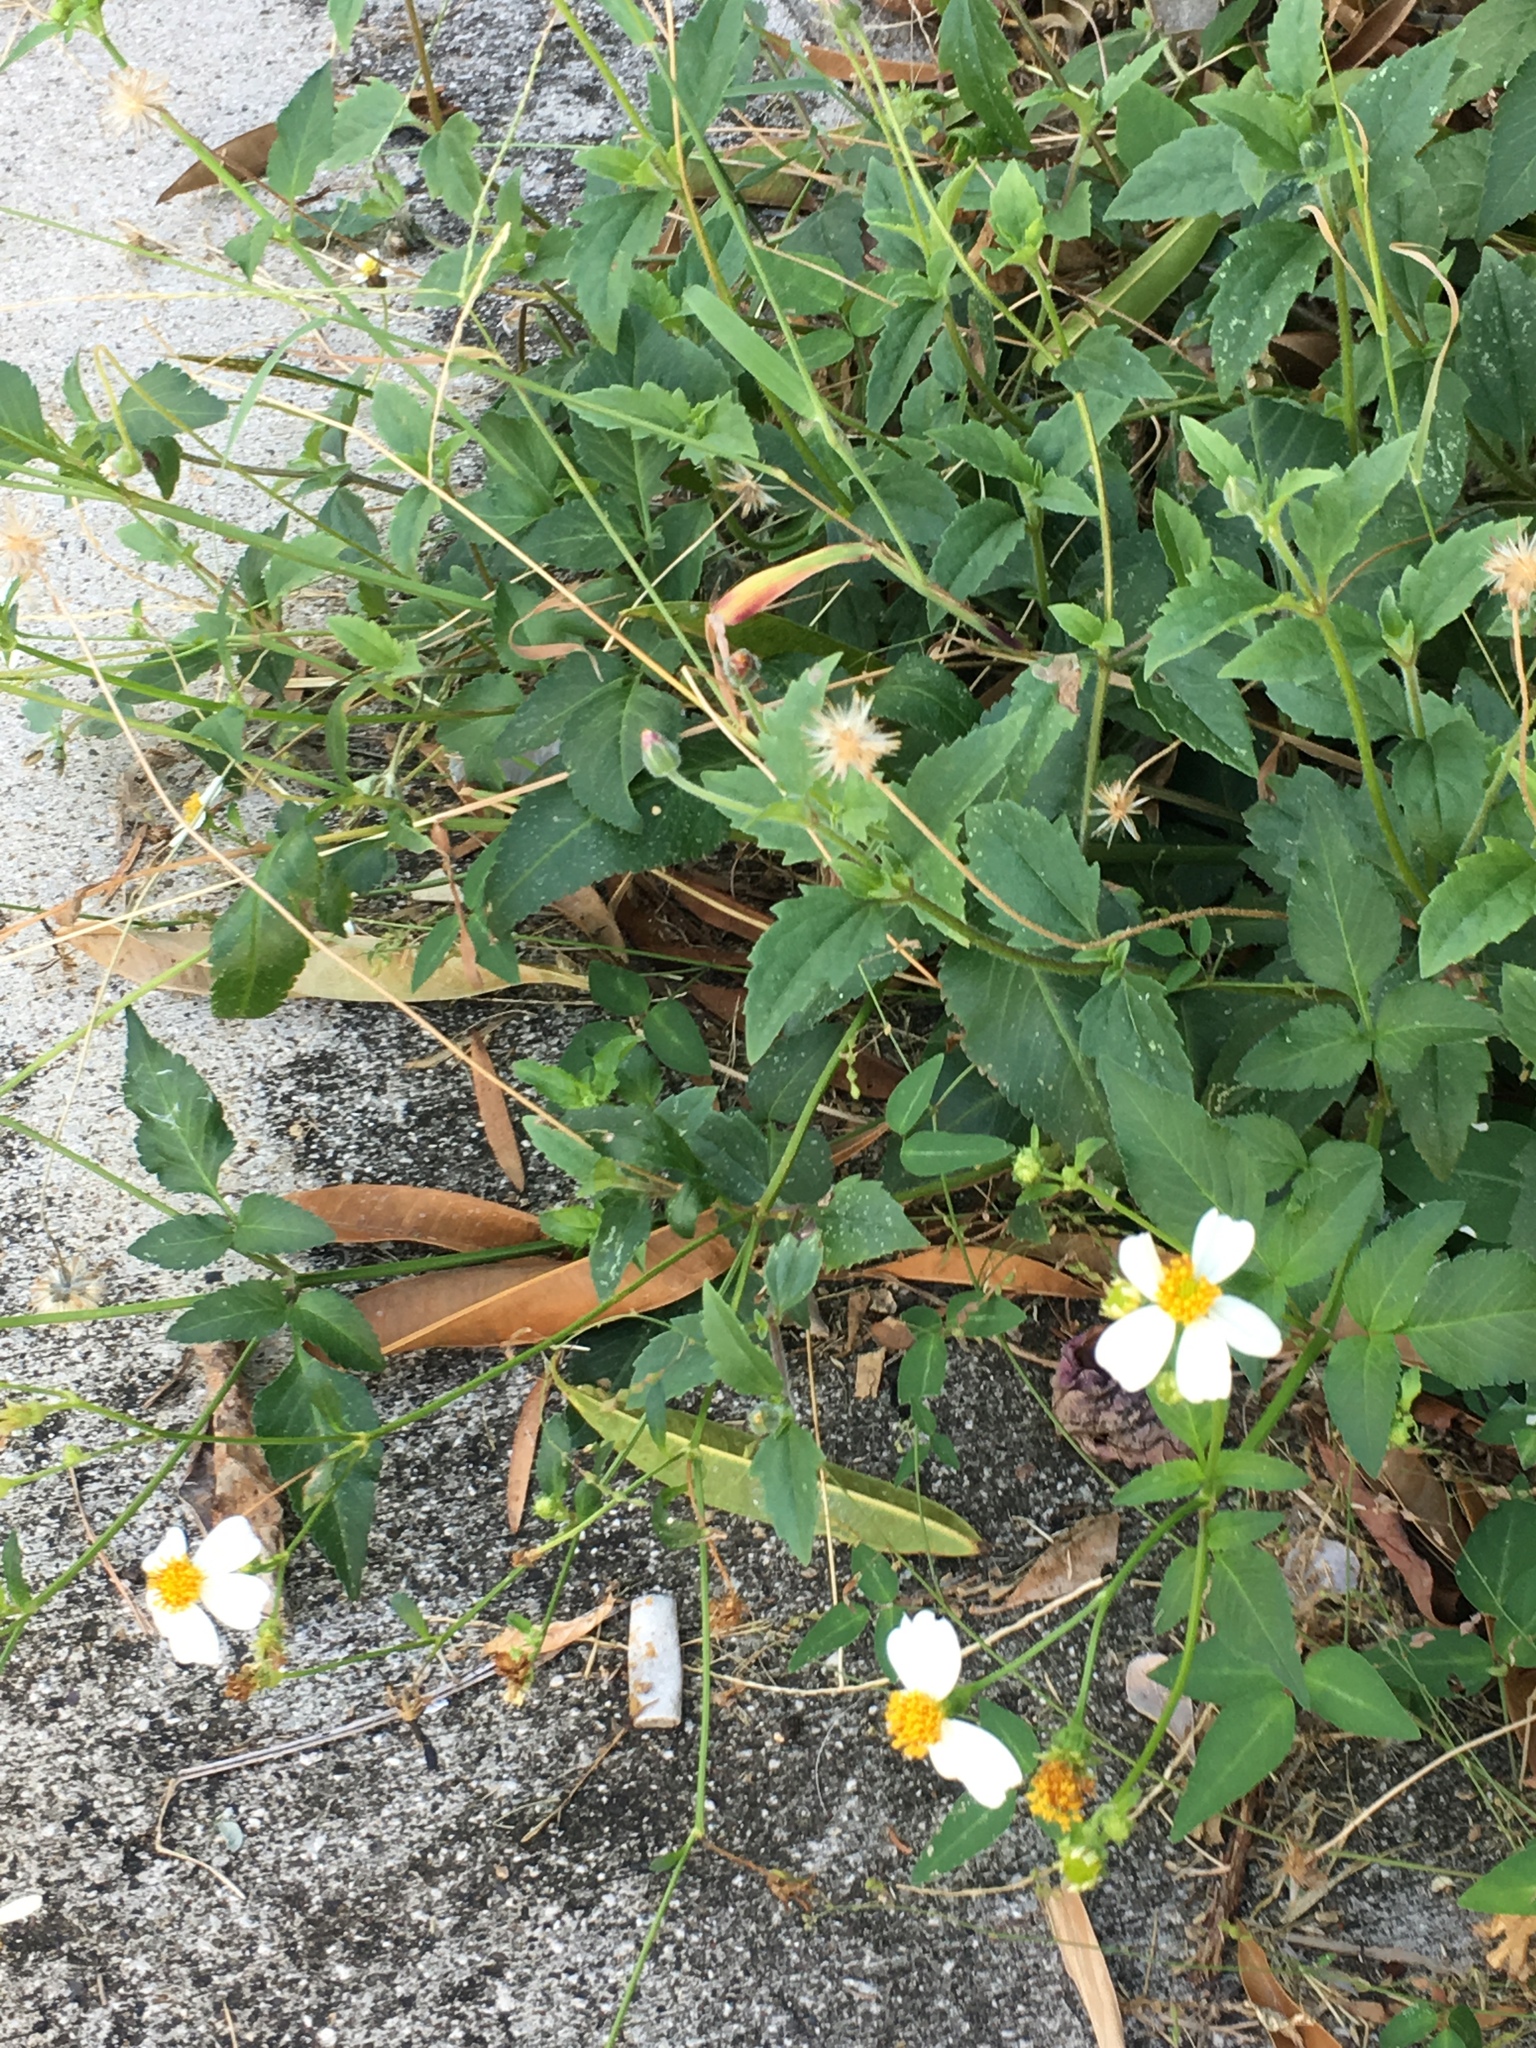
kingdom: Plantae
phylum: Tracheophyta
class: Magnoliopsida
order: Asterales
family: Asteraceae
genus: Bidens
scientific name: Bidens alba
